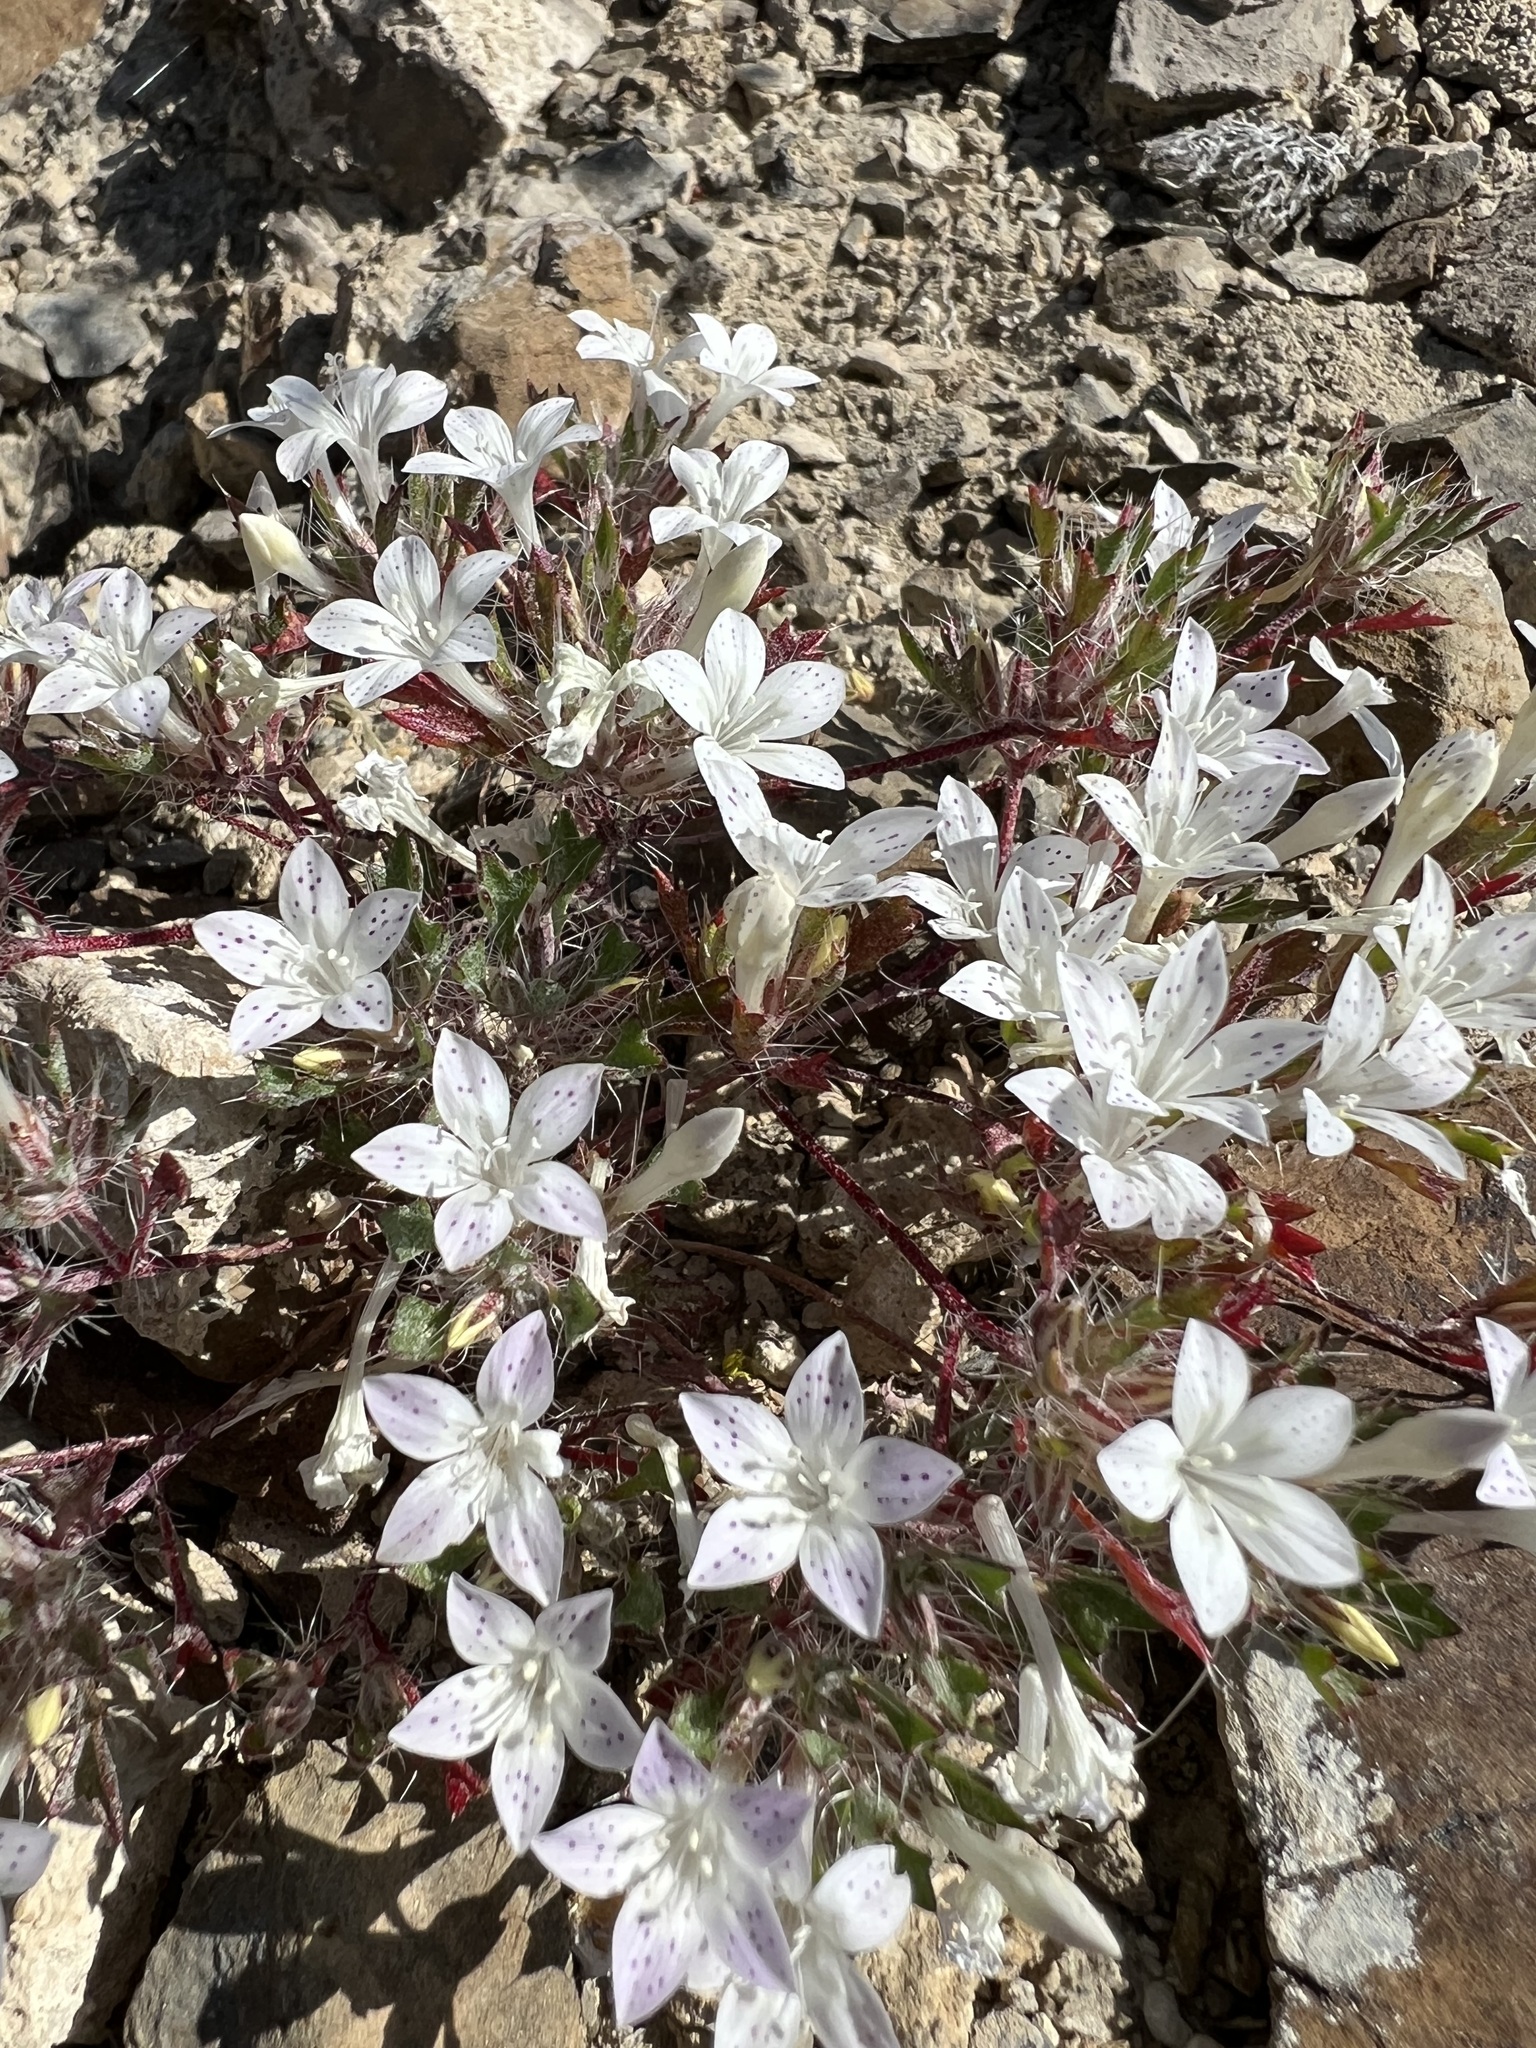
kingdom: Plantae
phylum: Tracheophyta
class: Magnoliopsida
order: Ericales
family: Polemoniaceae
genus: Langloisia
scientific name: Langloisia setosissima
